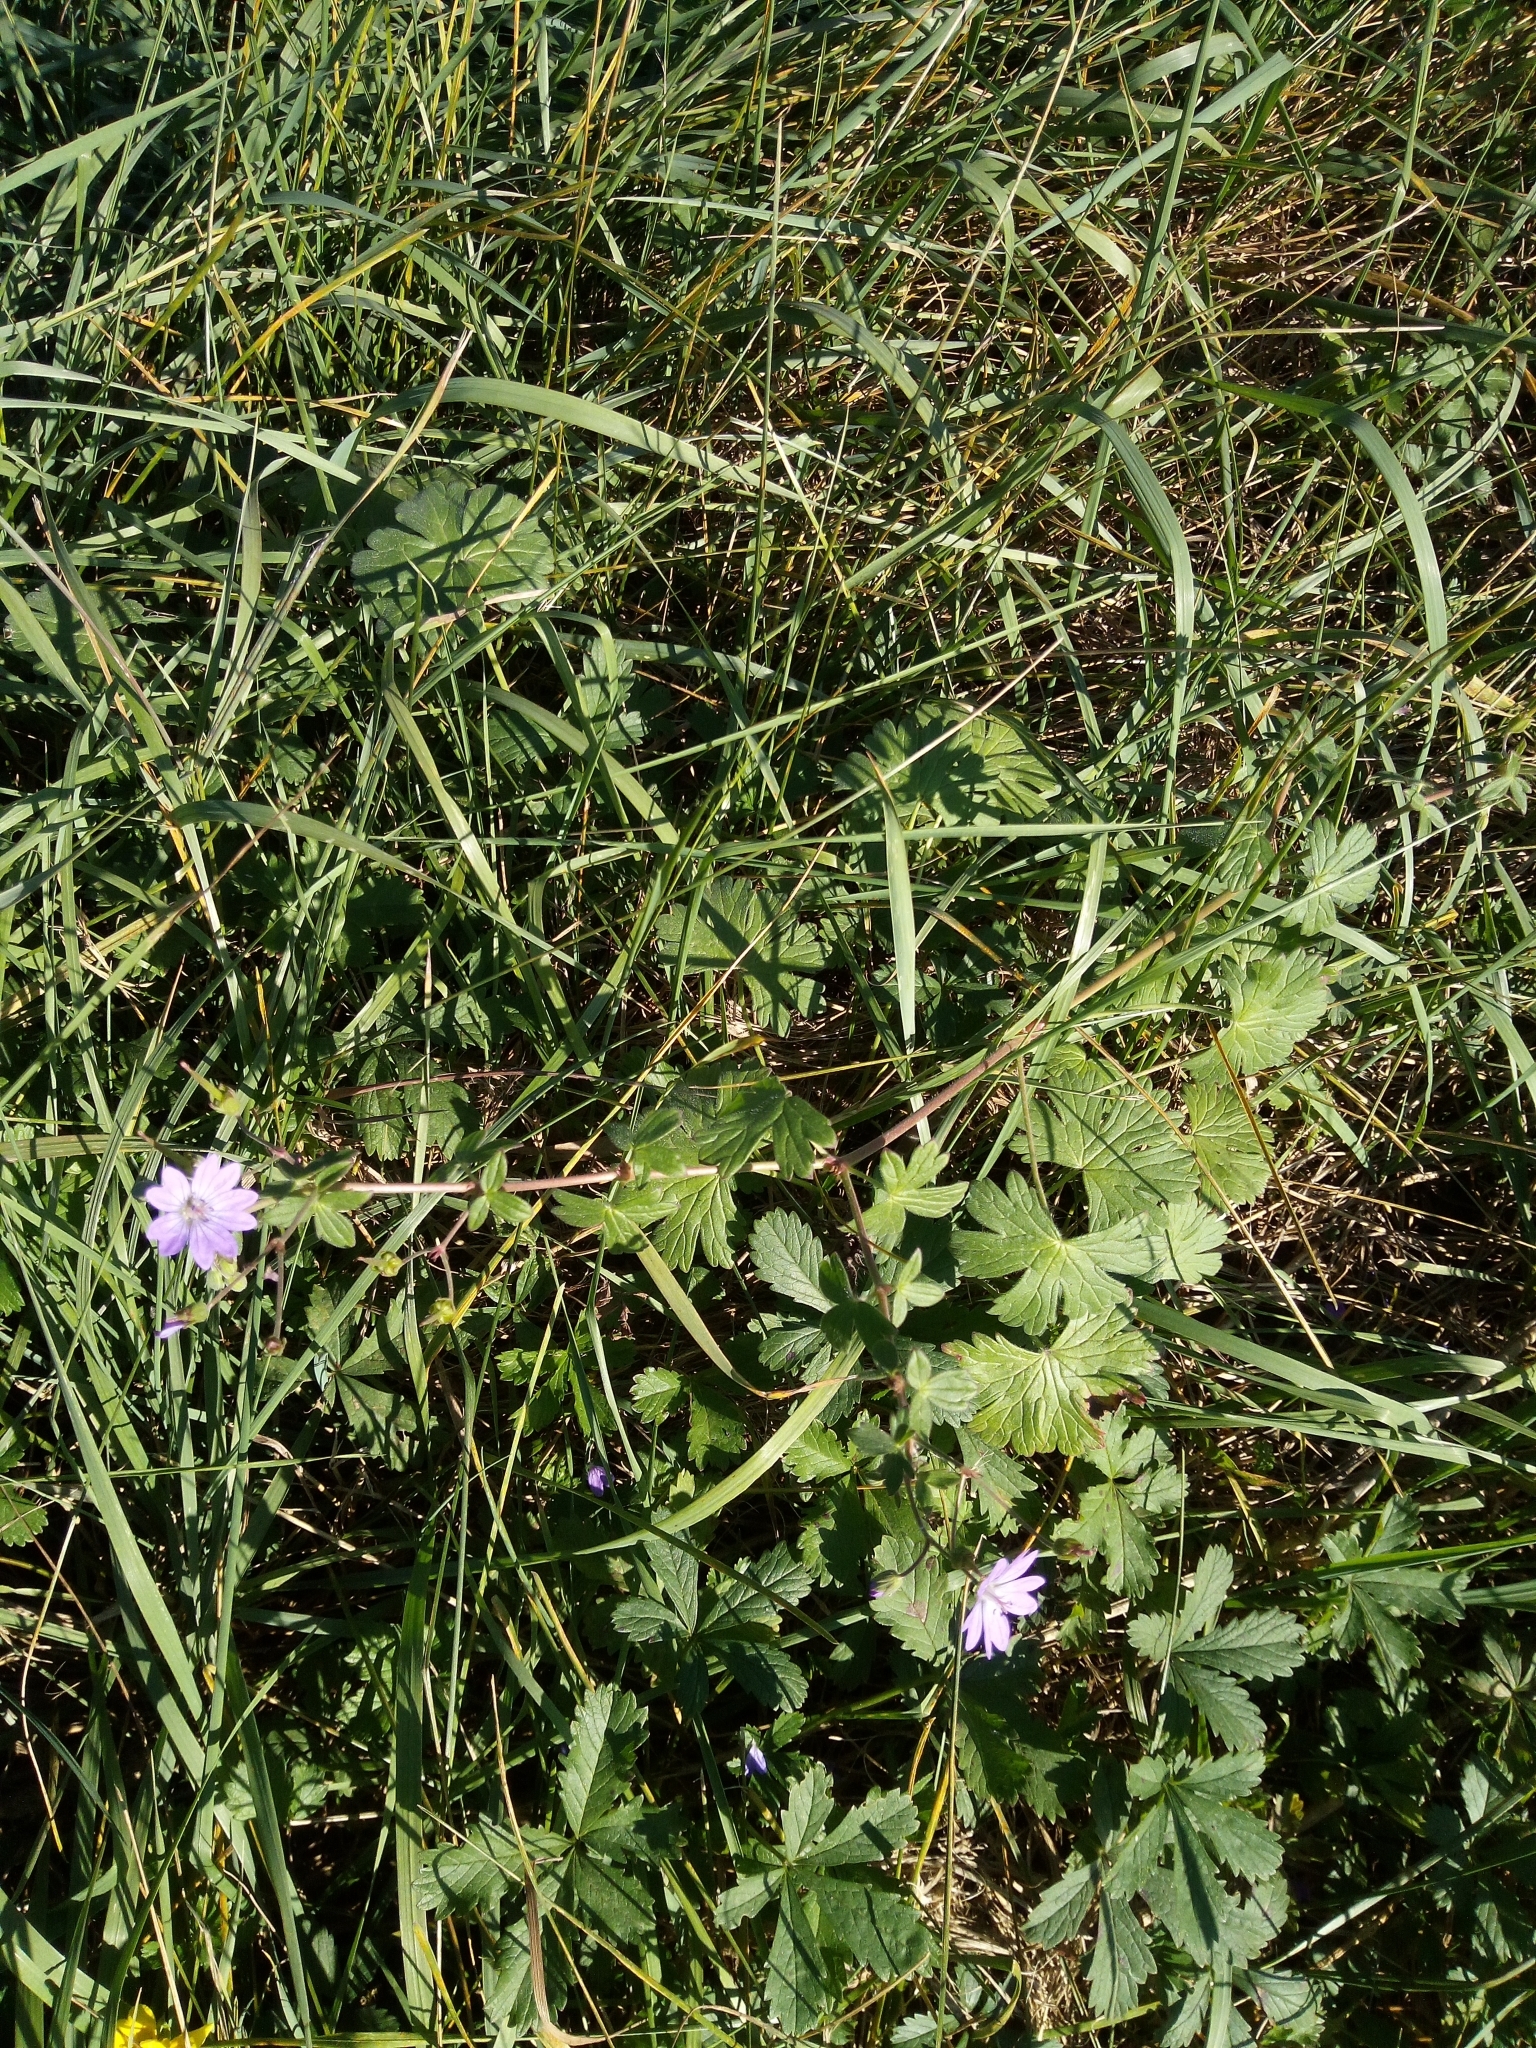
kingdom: Plantae
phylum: Tracheophyta
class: Magnoliopsida
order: Geraniales
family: Geraniaceae
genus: Geranium
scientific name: Geranium pyrenaicum
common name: Hedgerow crane's-bill
